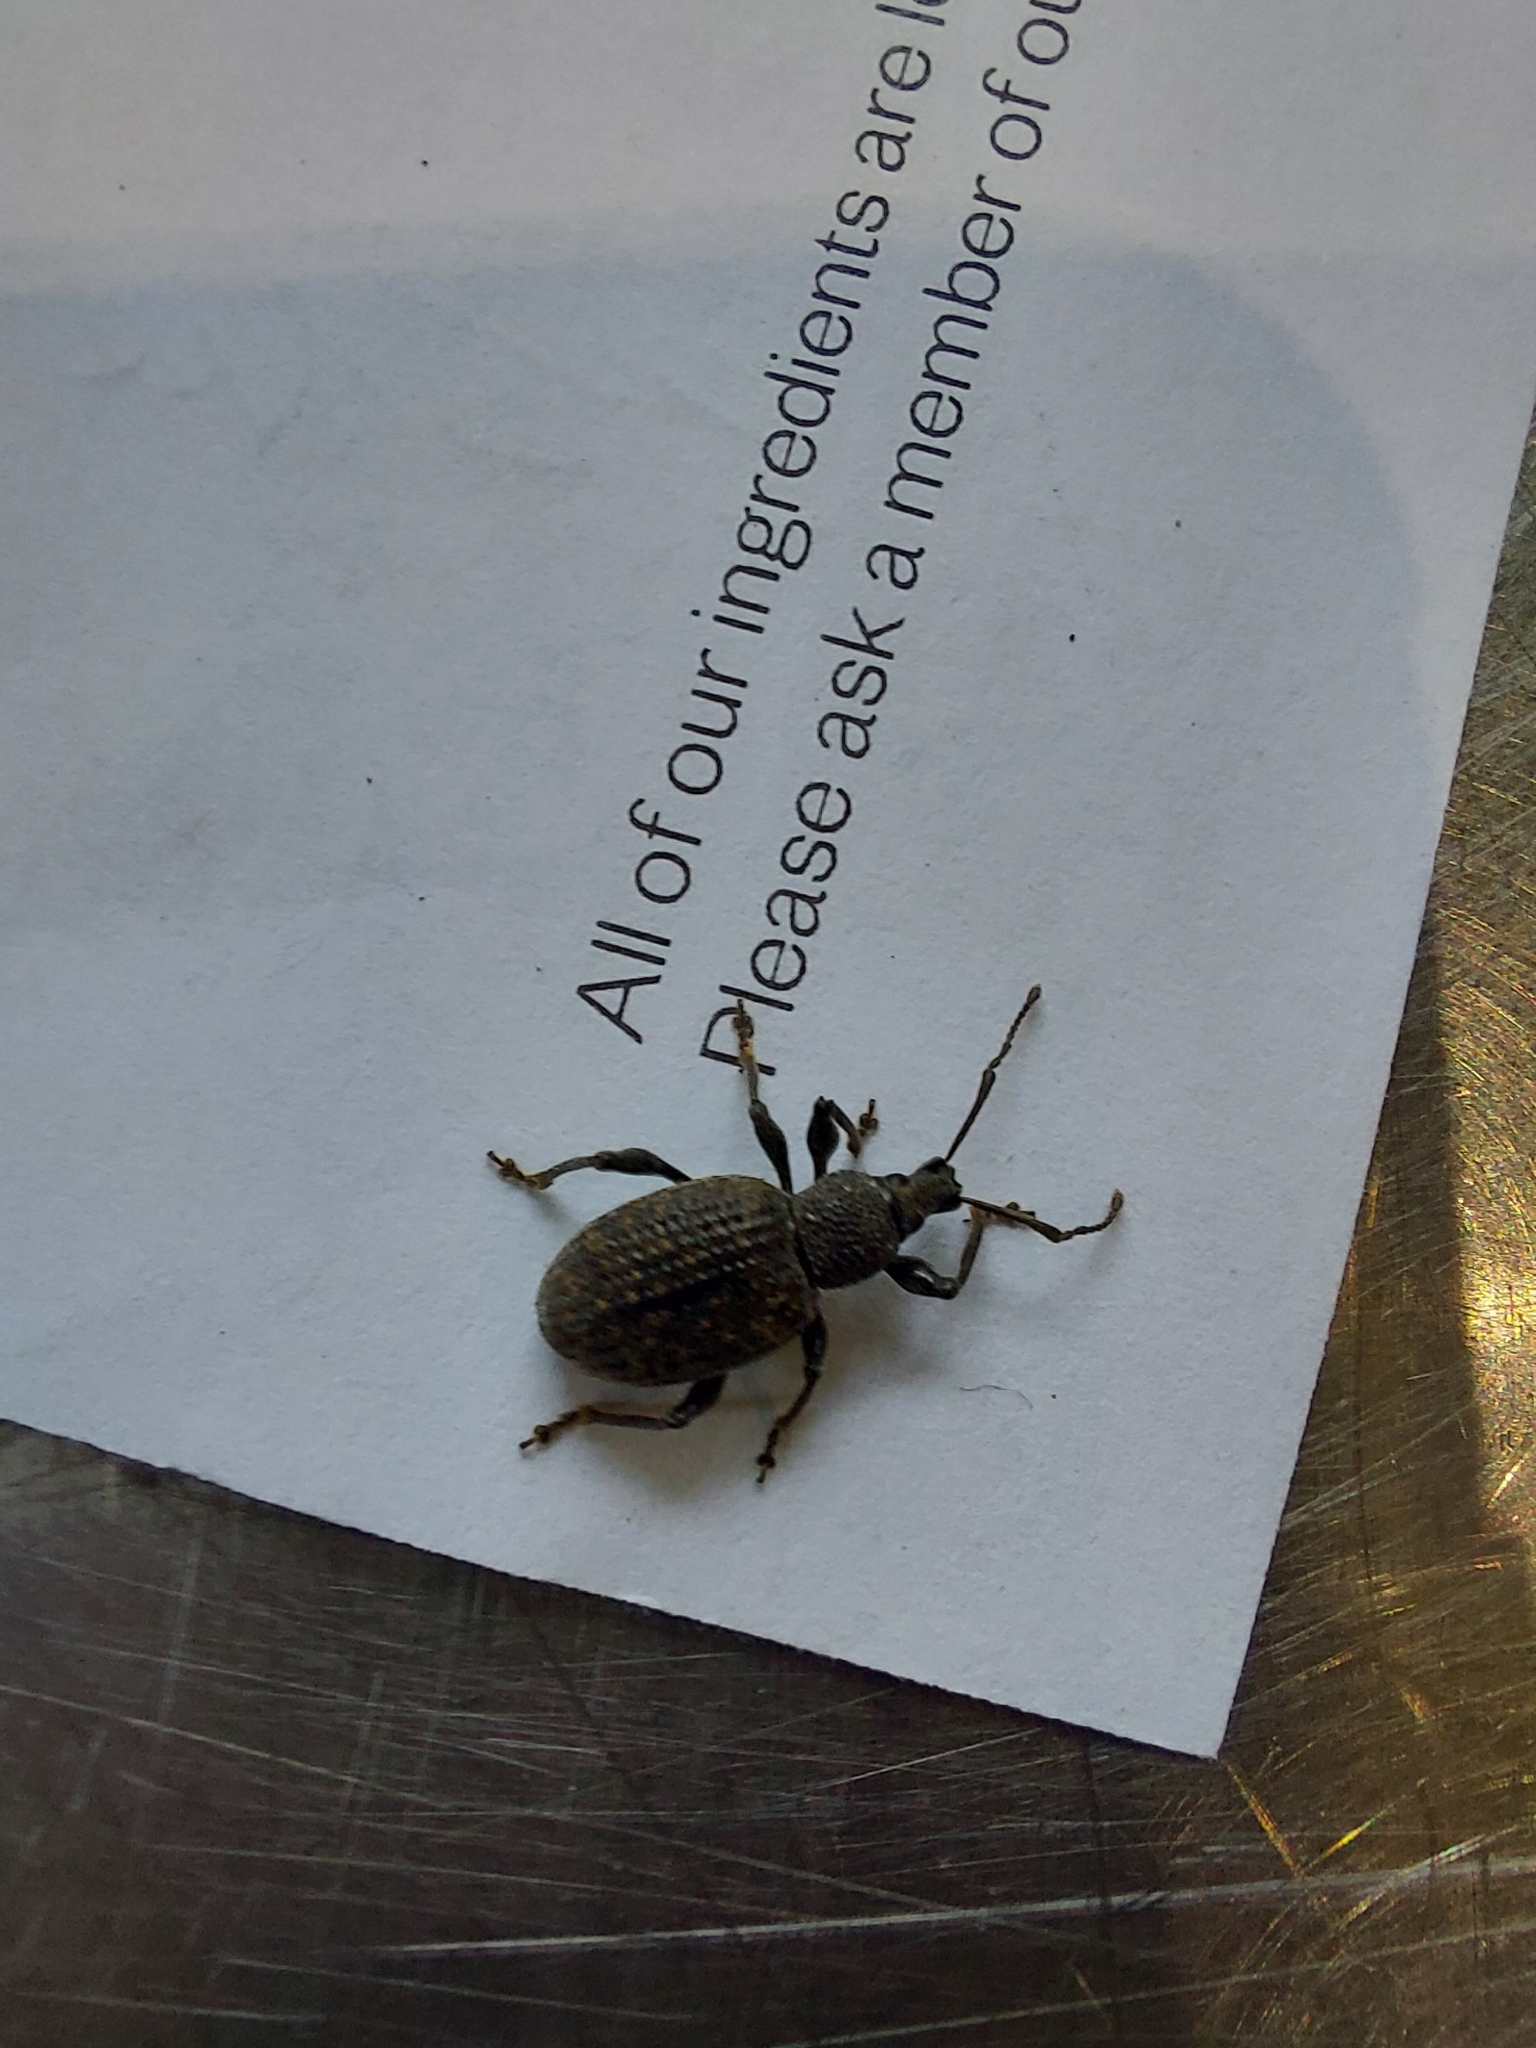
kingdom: Animalia
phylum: Arthropoda
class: Insecta
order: Coleoptera
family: Curculionidae
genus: Otiorhynchus
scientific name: Otiorhynchus sulcatus
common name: Black vine weevil
